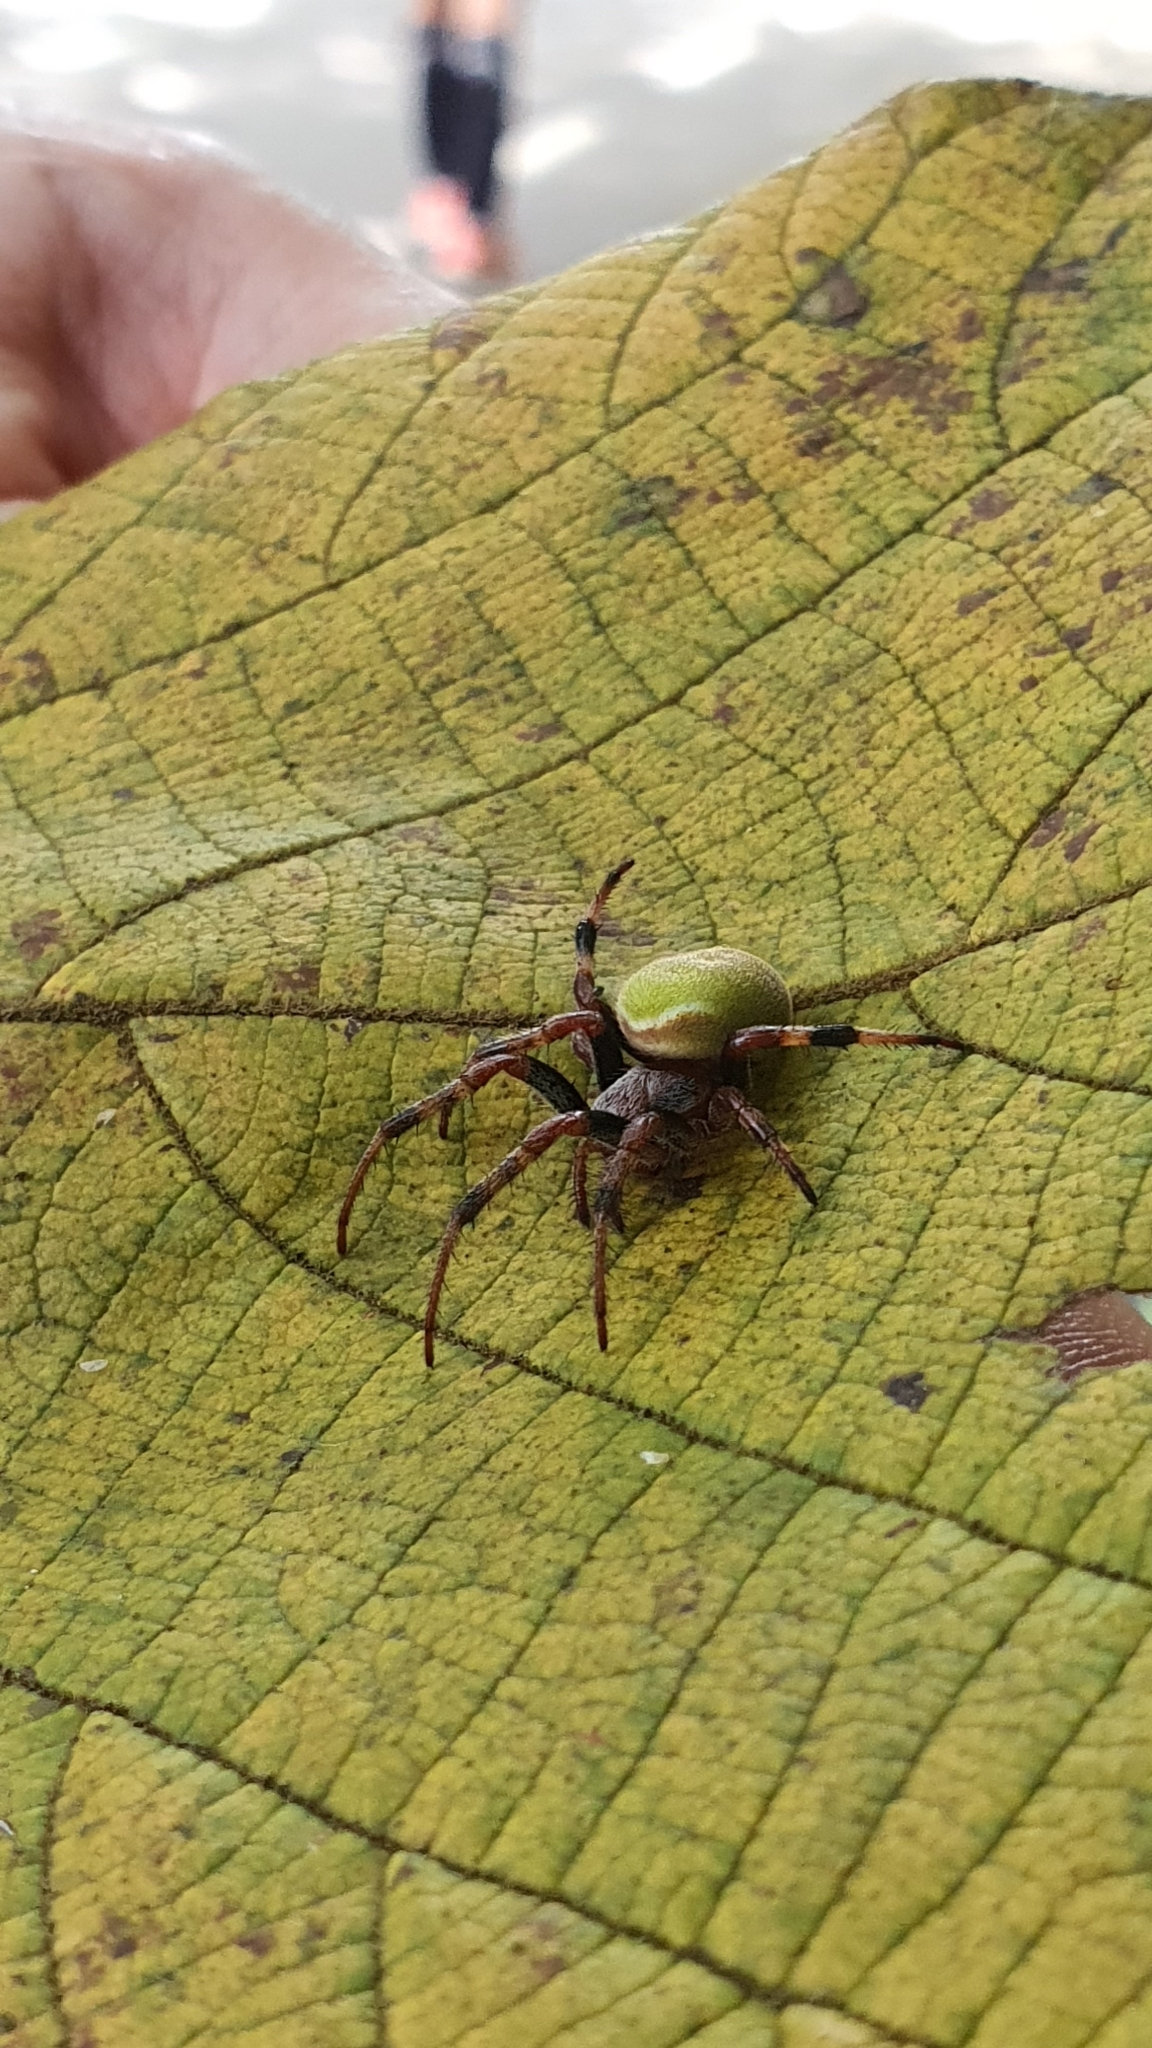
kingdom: Animalia
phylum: Arthropoda
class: Arachnida
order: Araneae
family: Araneidae
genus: Araneus
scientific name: Araneus lathyrinus
